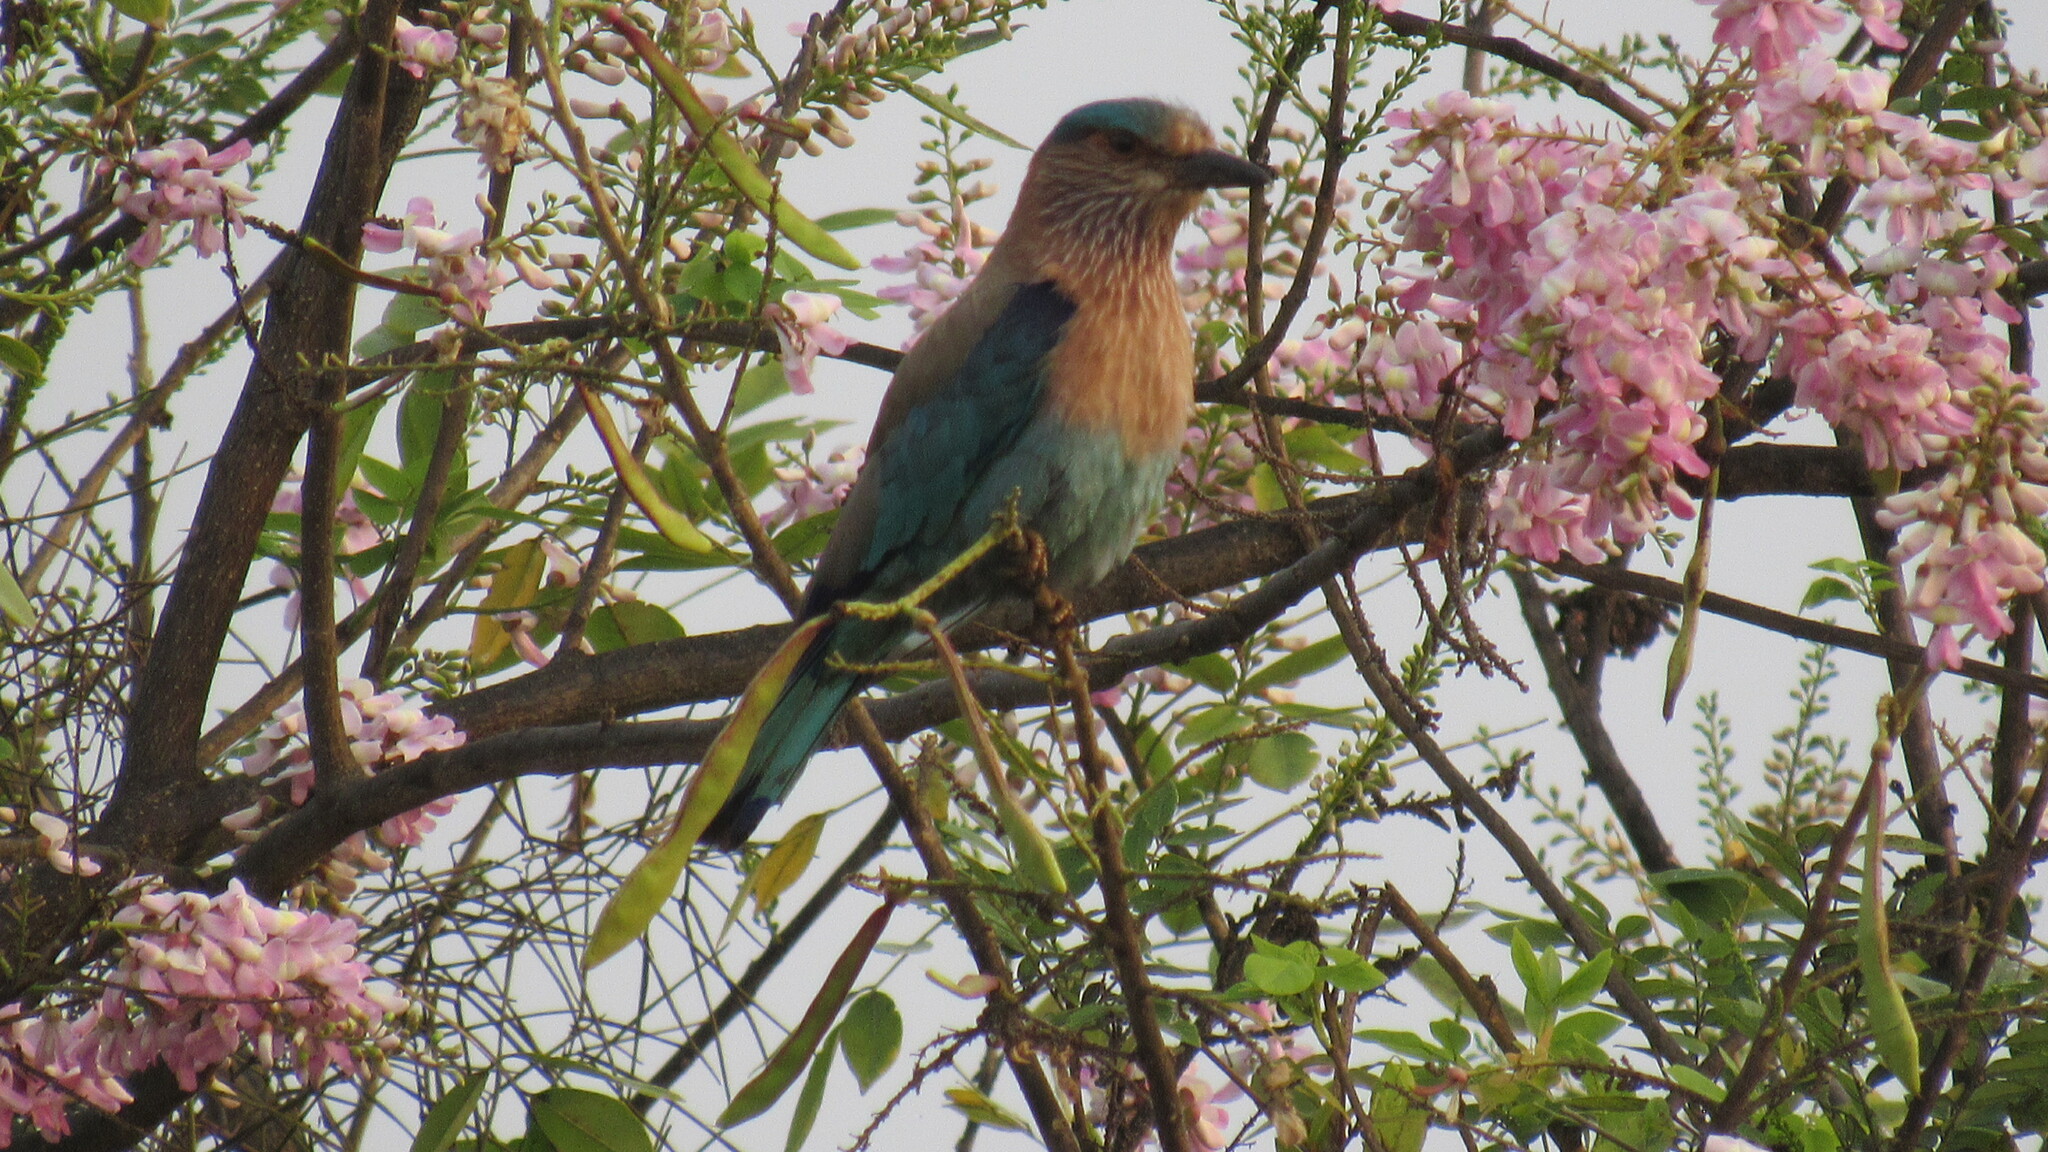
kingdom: Animalia
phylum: Chordata
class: Aves
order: Coraciiformes
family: Coraciidae
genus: Coracias
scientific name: Coracias benghalensis
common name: Indian roller
